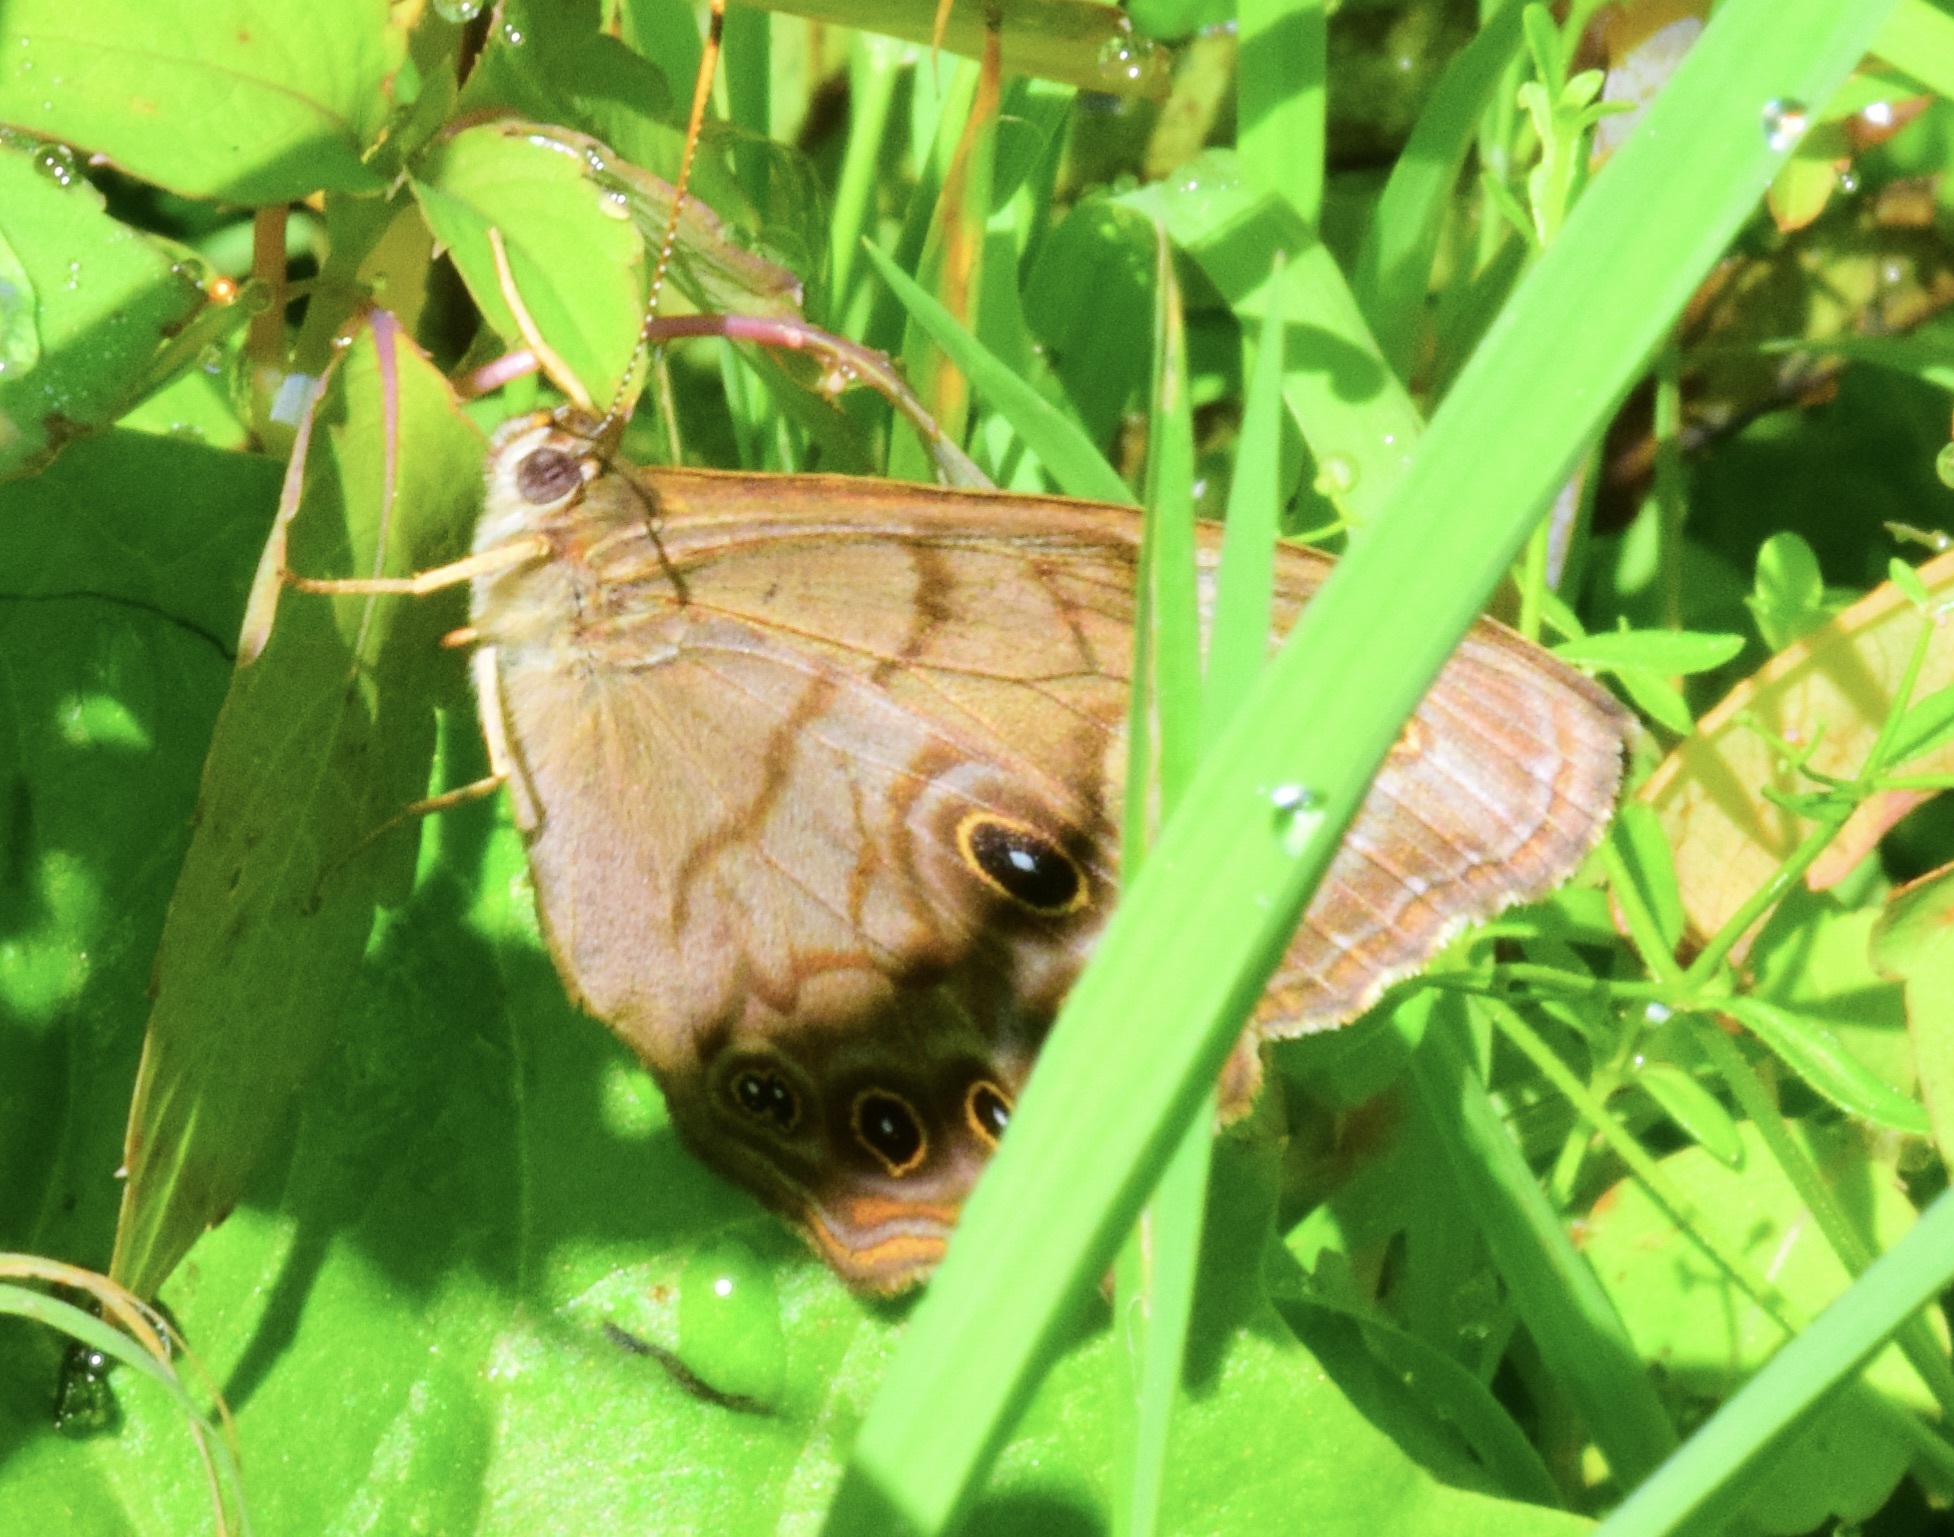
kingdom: Animalia
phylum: Arthropoda
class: Insecta
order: Lepidoptera
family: Nymphalidae
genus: Lethe
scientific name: Lethe anthedon
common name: Northern pearly-eye
